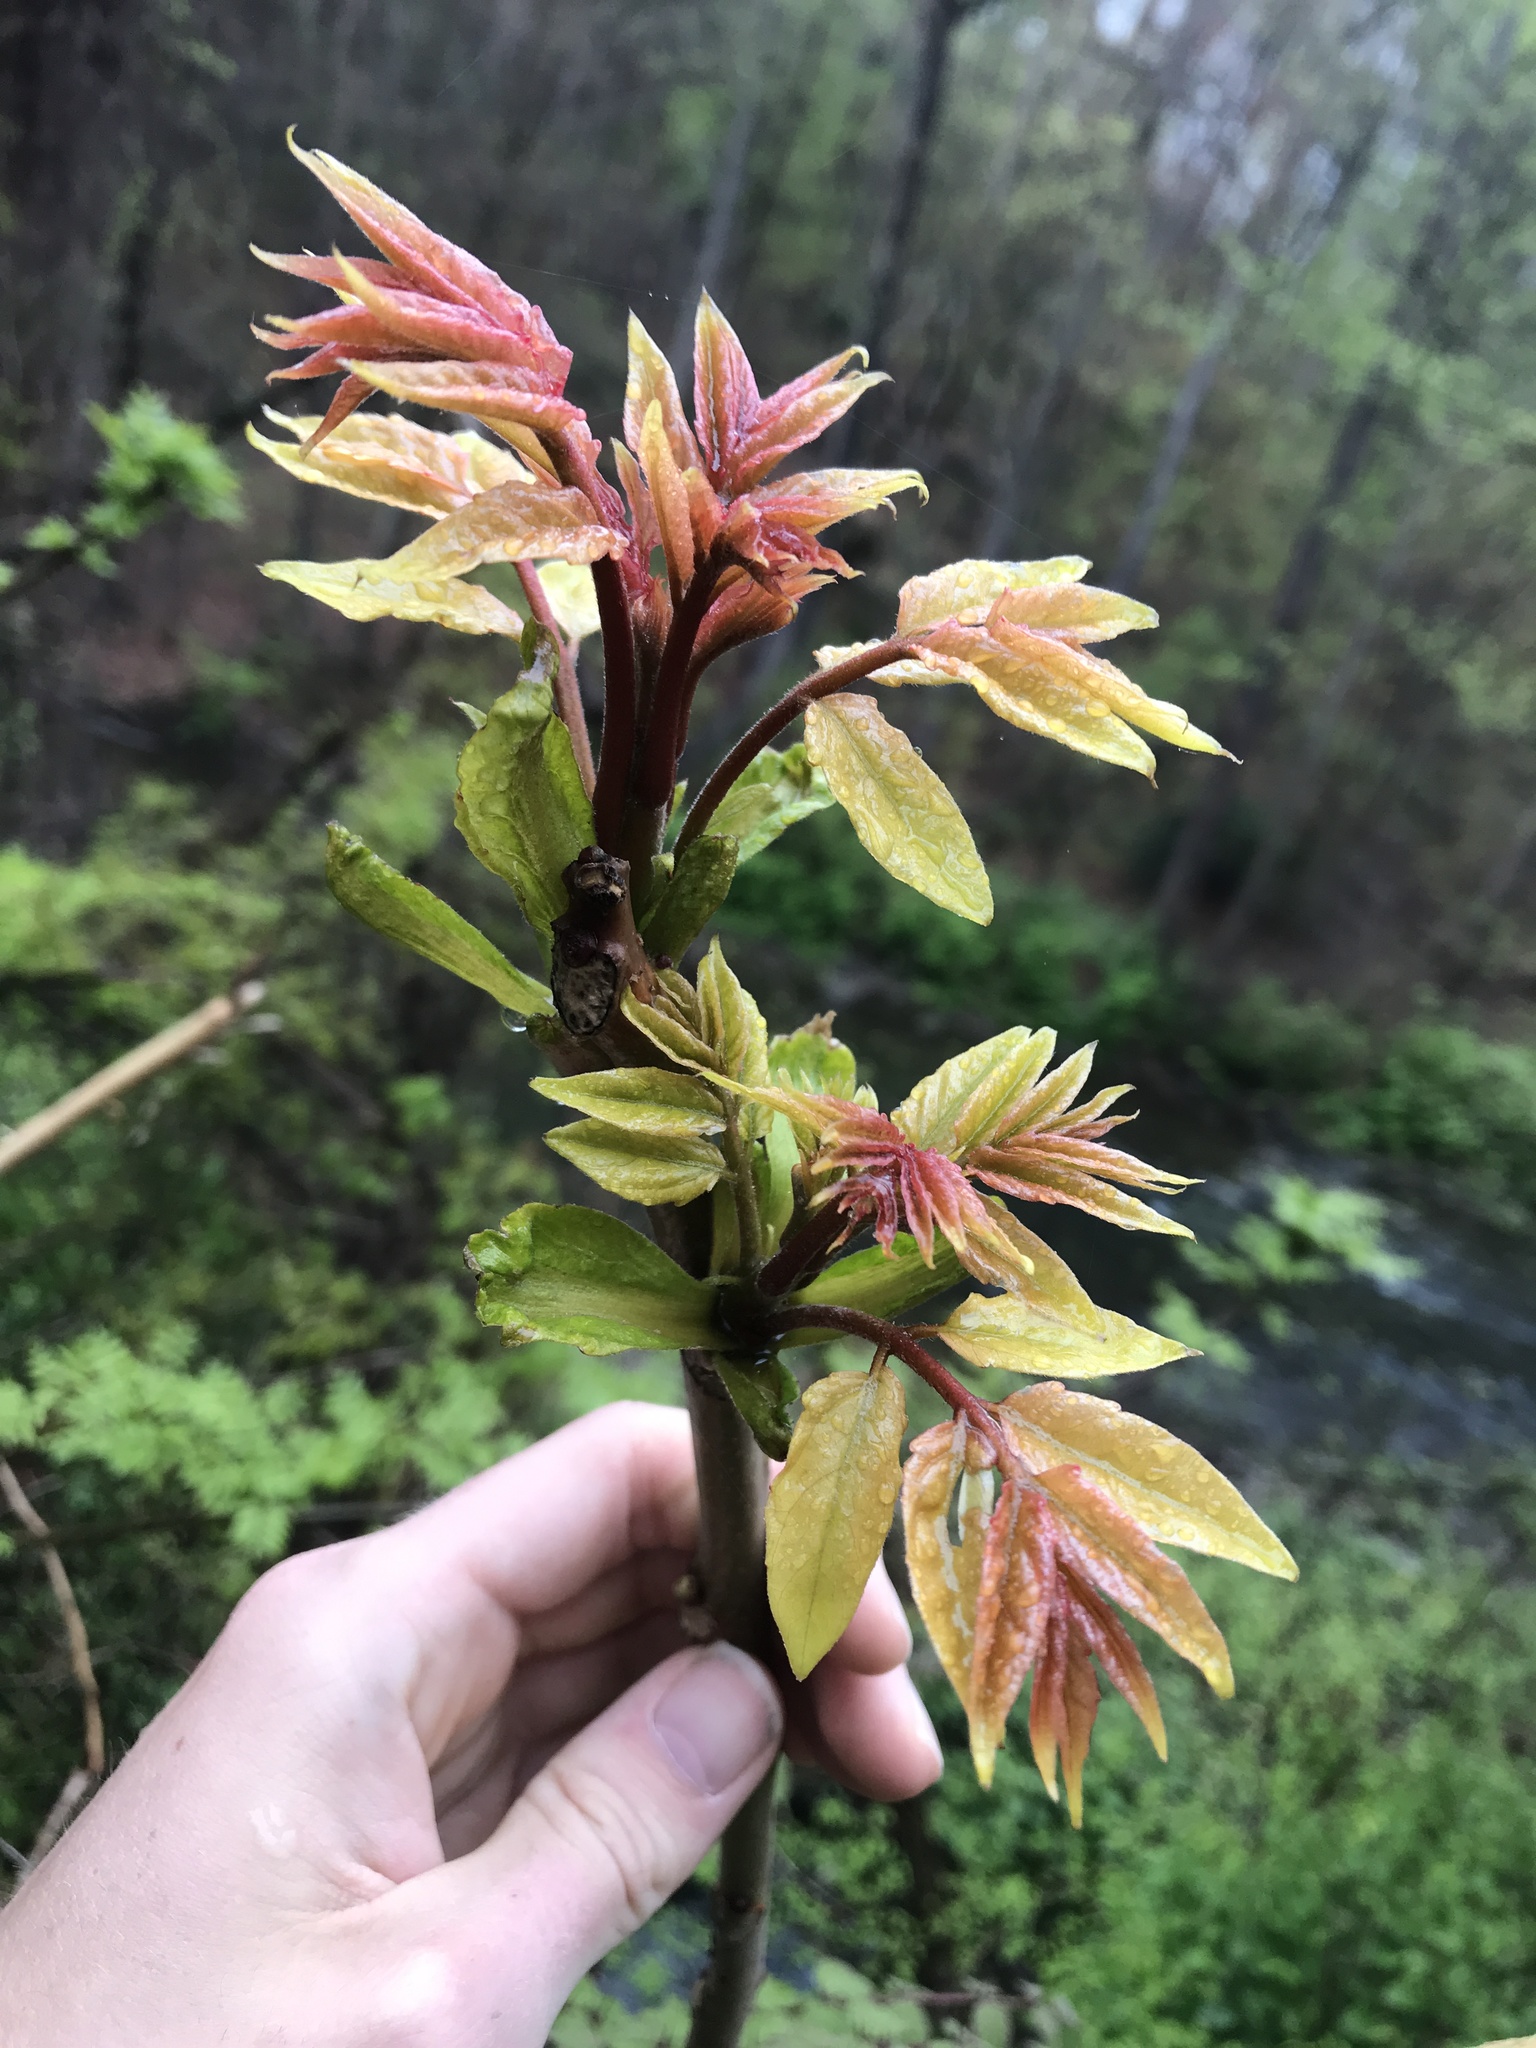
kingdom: Plantae
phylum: Tracheophyta
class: Magnoliopsida
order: Sapindales
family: Simaroubaceae
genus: Ailanthus
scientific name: Ailanthus altissima
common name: Tree-of-heaven
